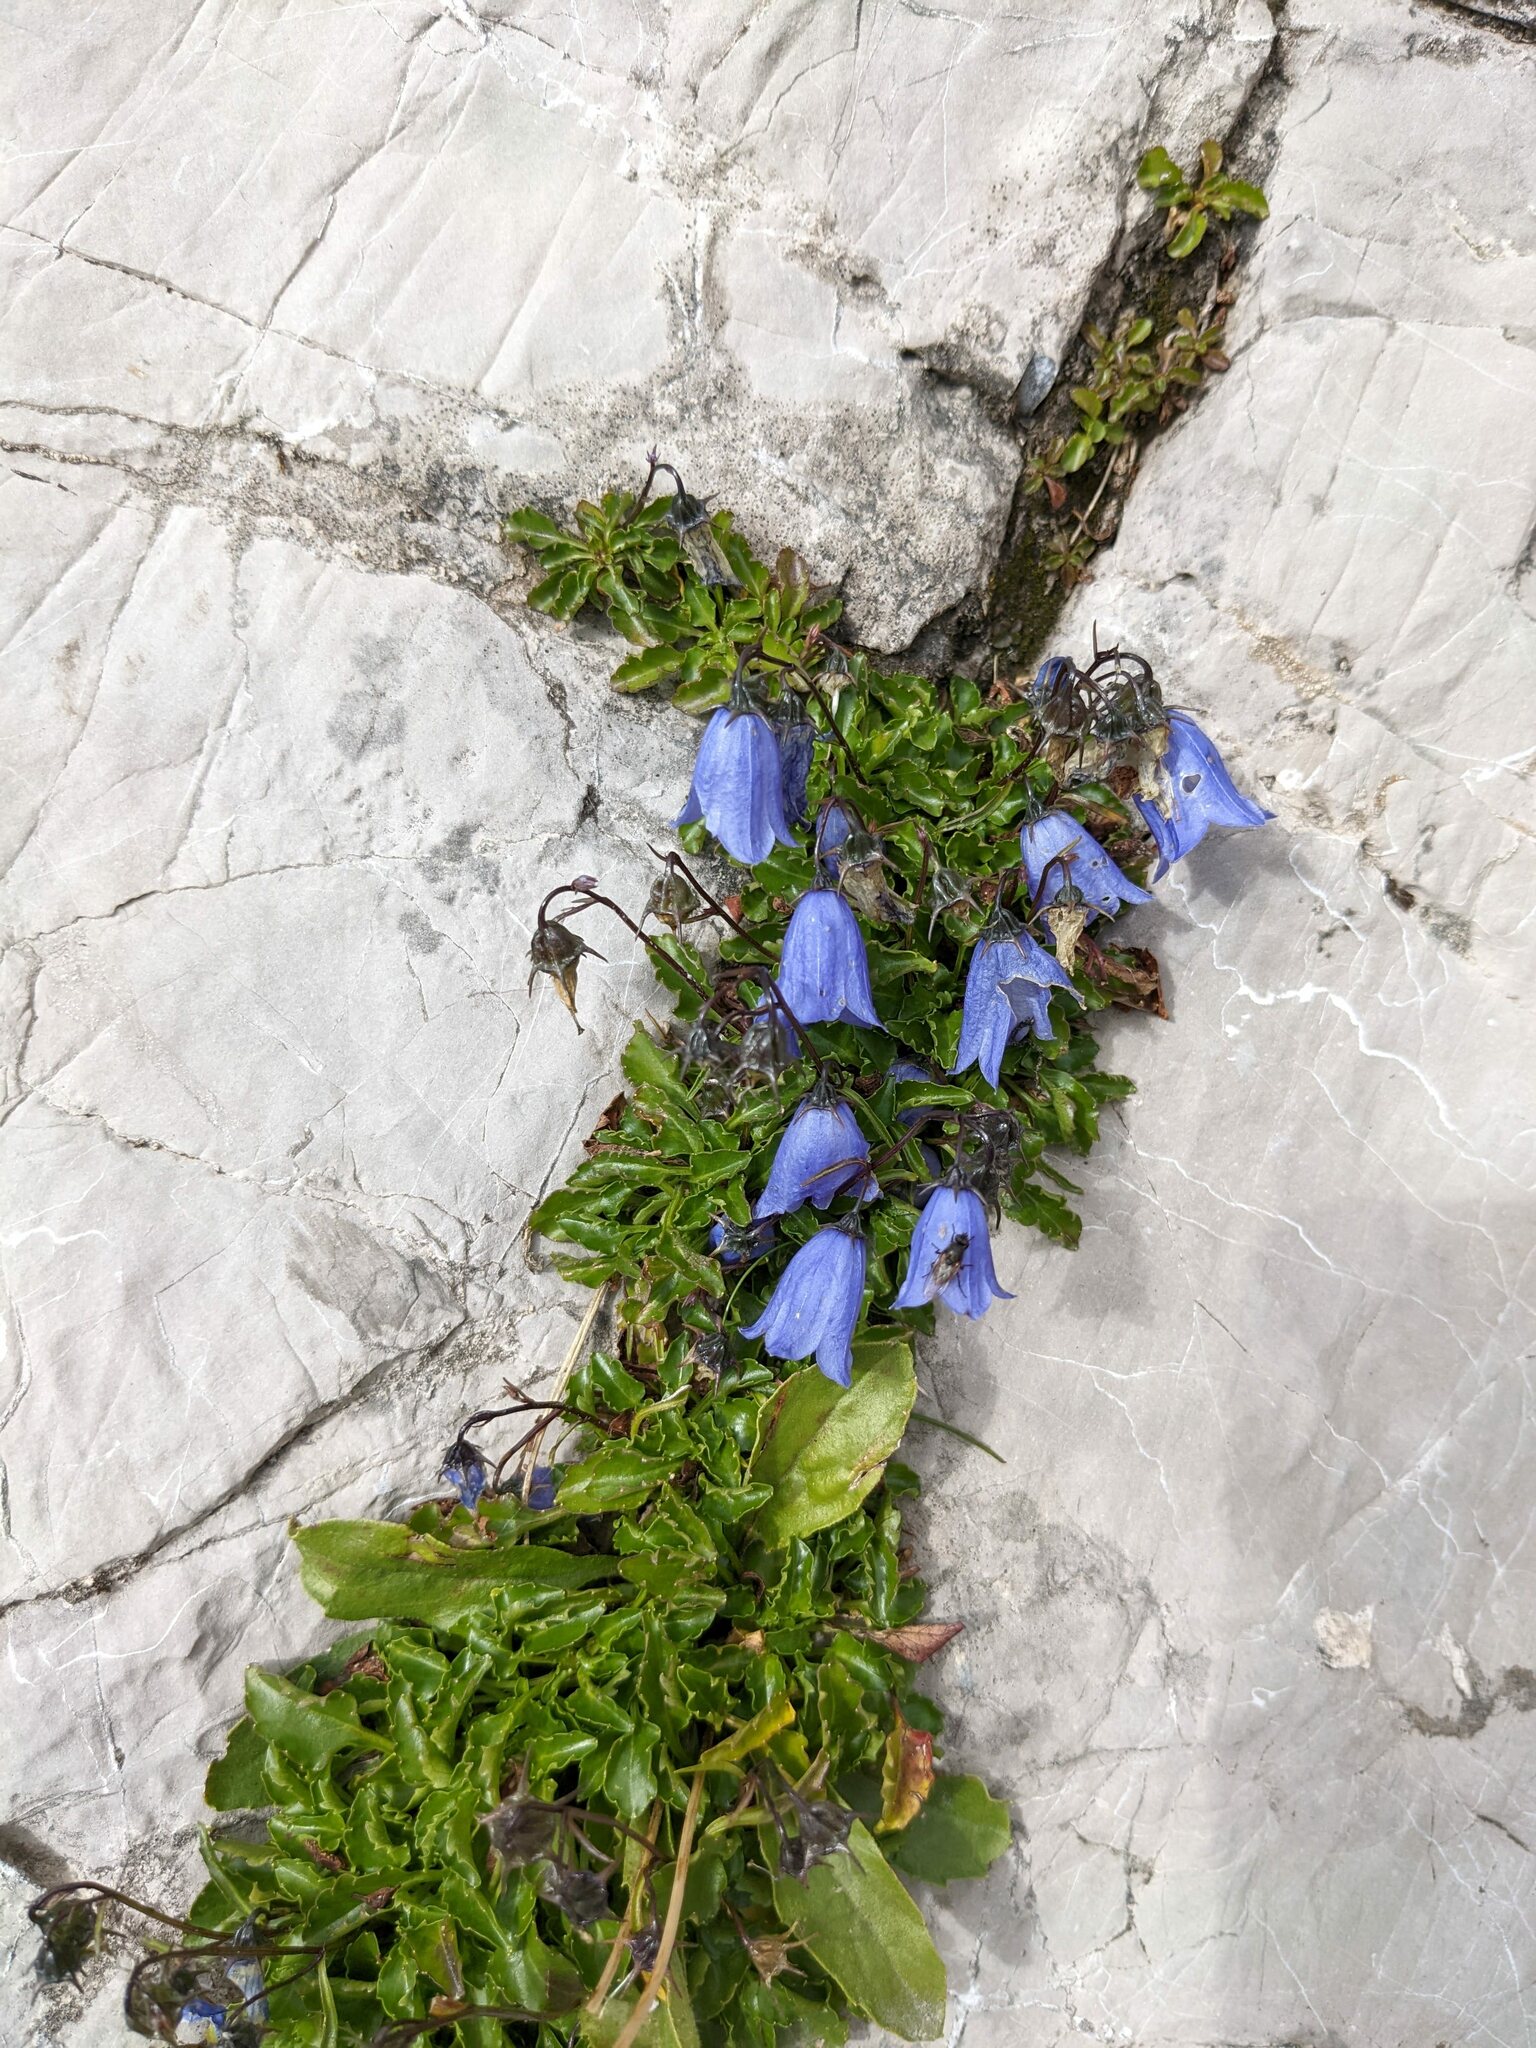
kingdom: Plantae
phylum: Tracheophyta
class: Magnoliopsida
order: Asterales
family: Campanulaceae
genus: Campanula
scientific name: Campanula cochleariifolia
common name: Fairies'-thimbles
